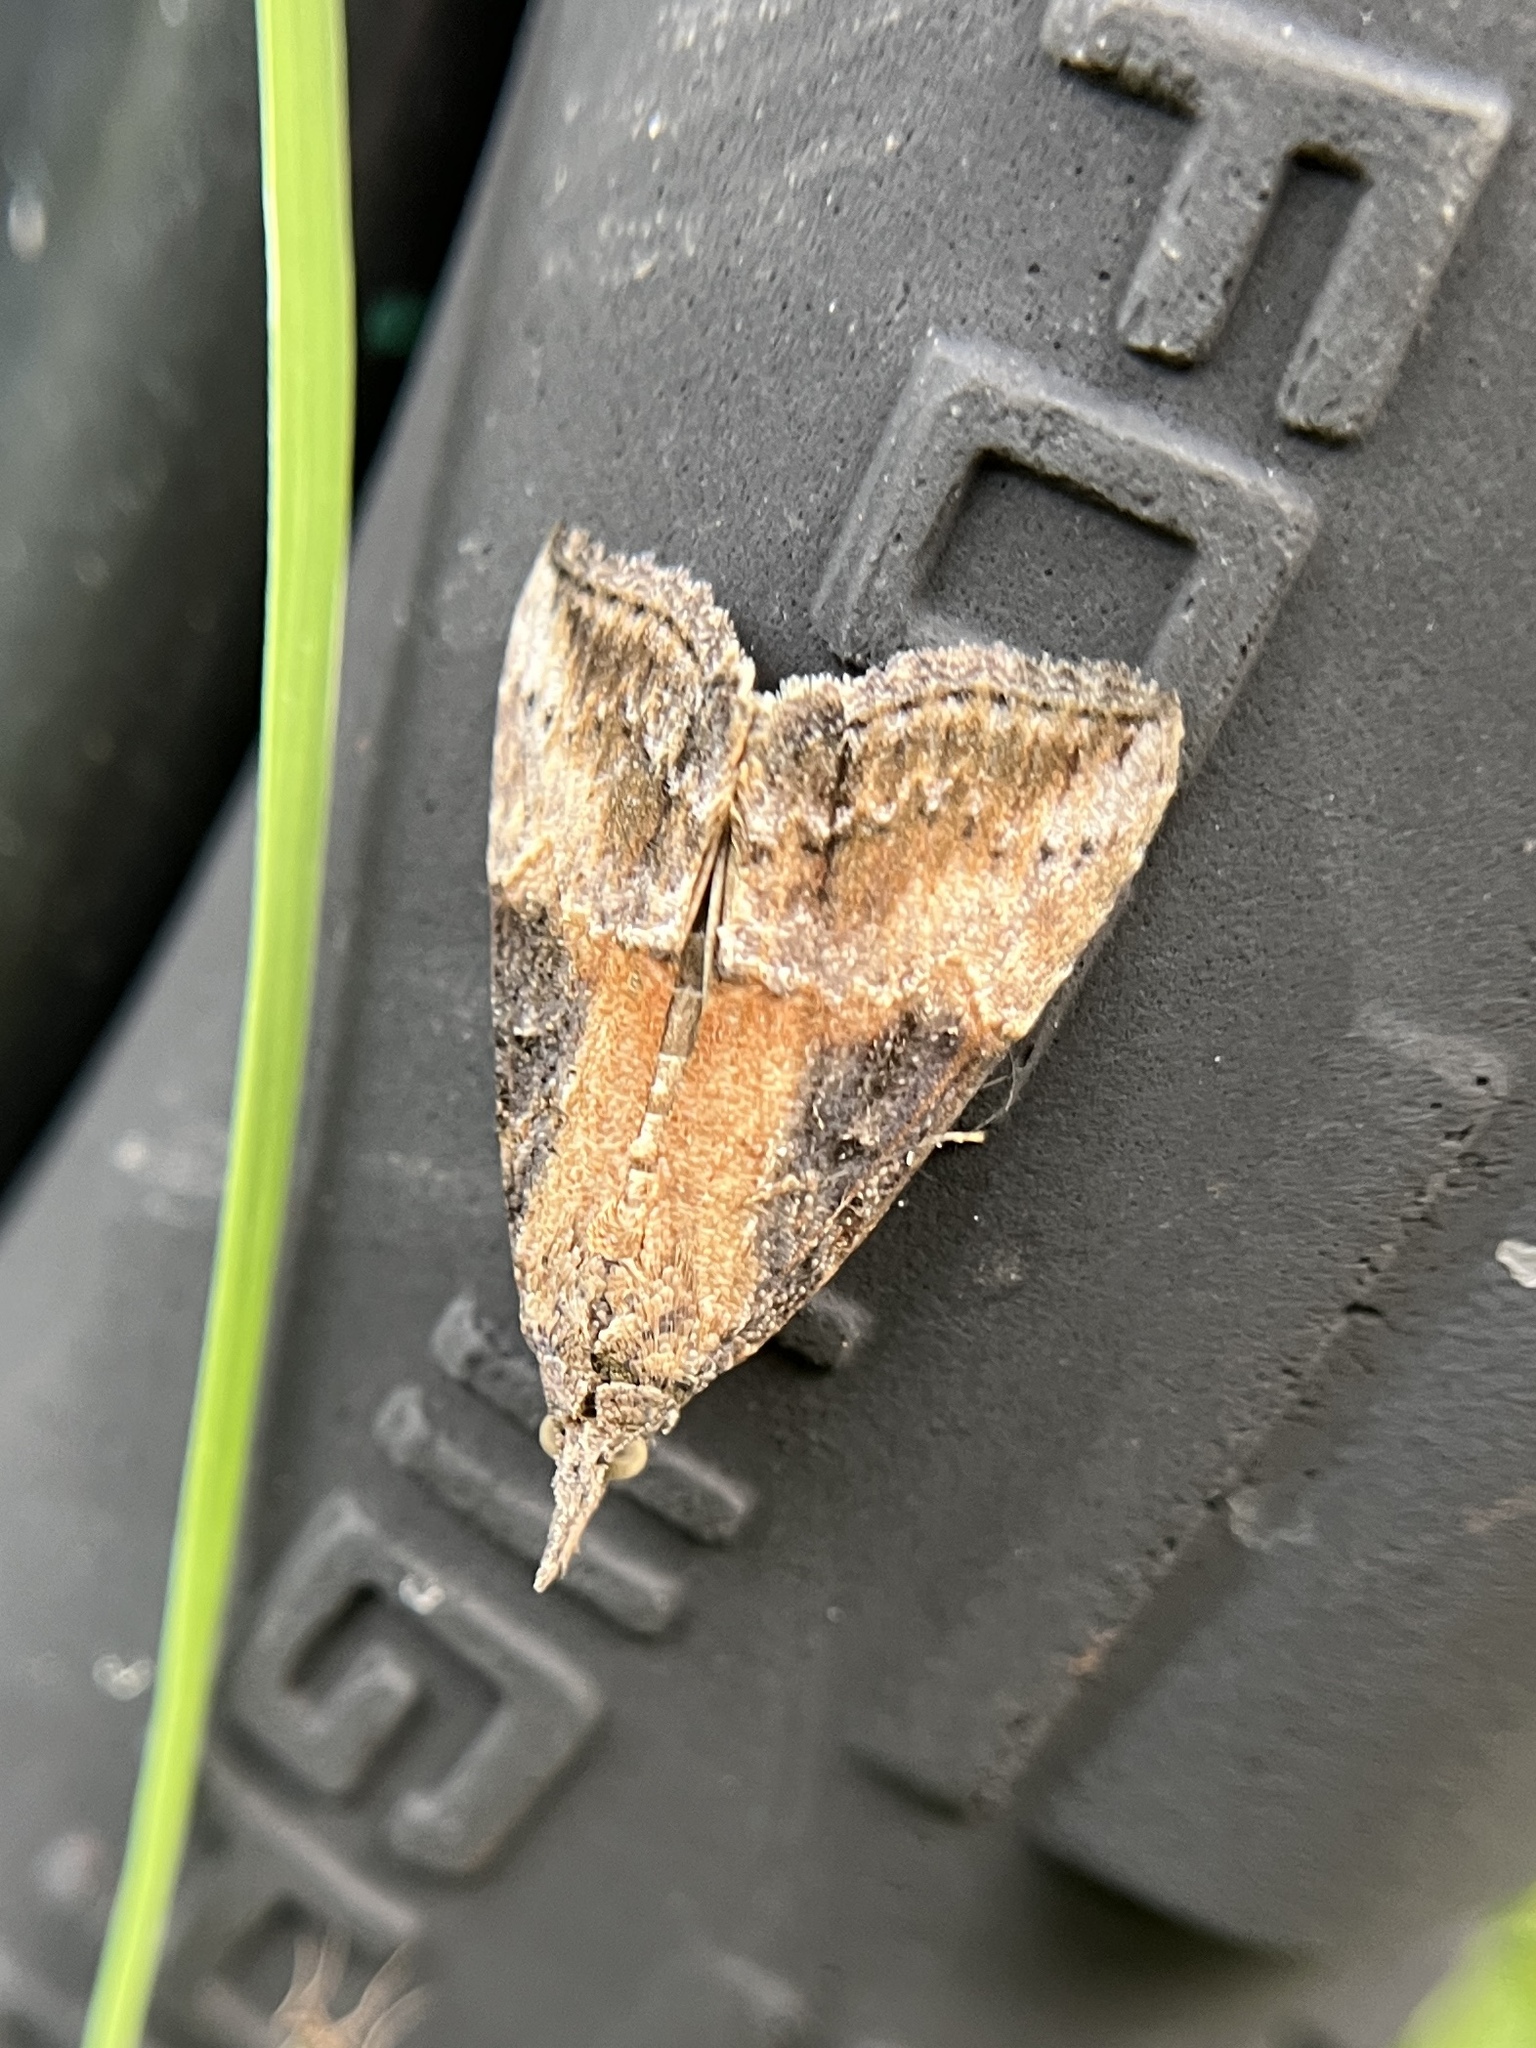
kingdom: Animalia
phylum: Arthropoda
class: Insecta
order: Lepidoptera
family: Erebidae
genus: Hypena
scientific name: Hypena scabra
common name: Green cloverworm
